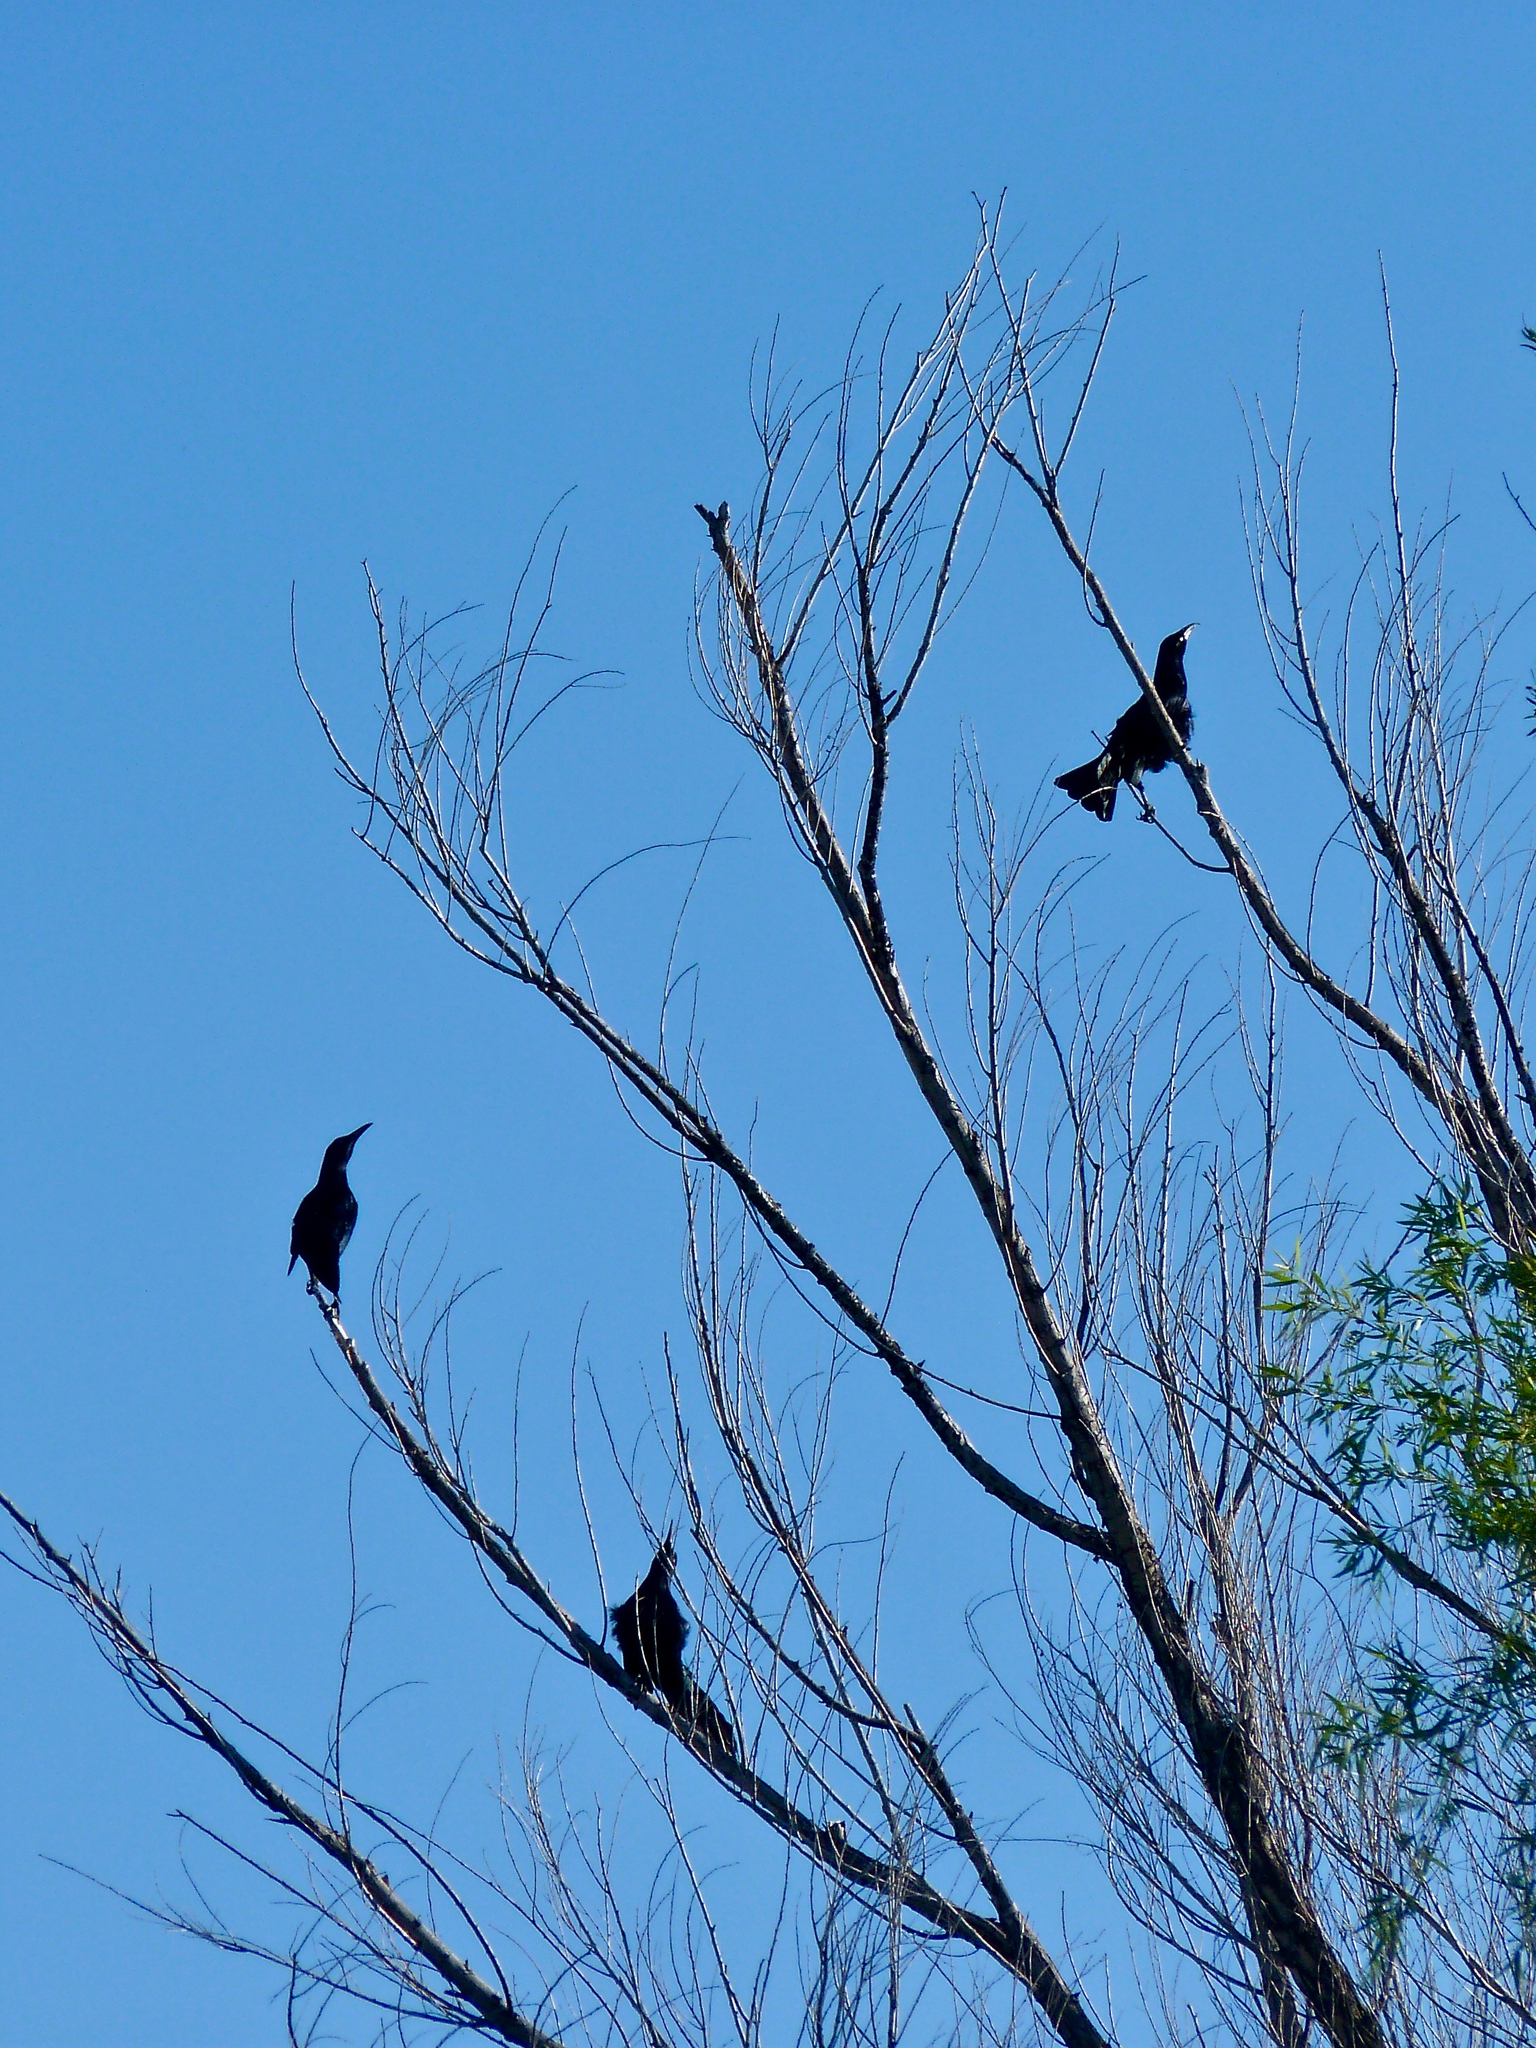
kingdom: Animalia
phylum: Chordata
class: Aves
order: Passeriformes
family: Icteridae
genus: Quiscalus
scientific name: Quiscalus mexicanus
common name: Great-tailed grackle
